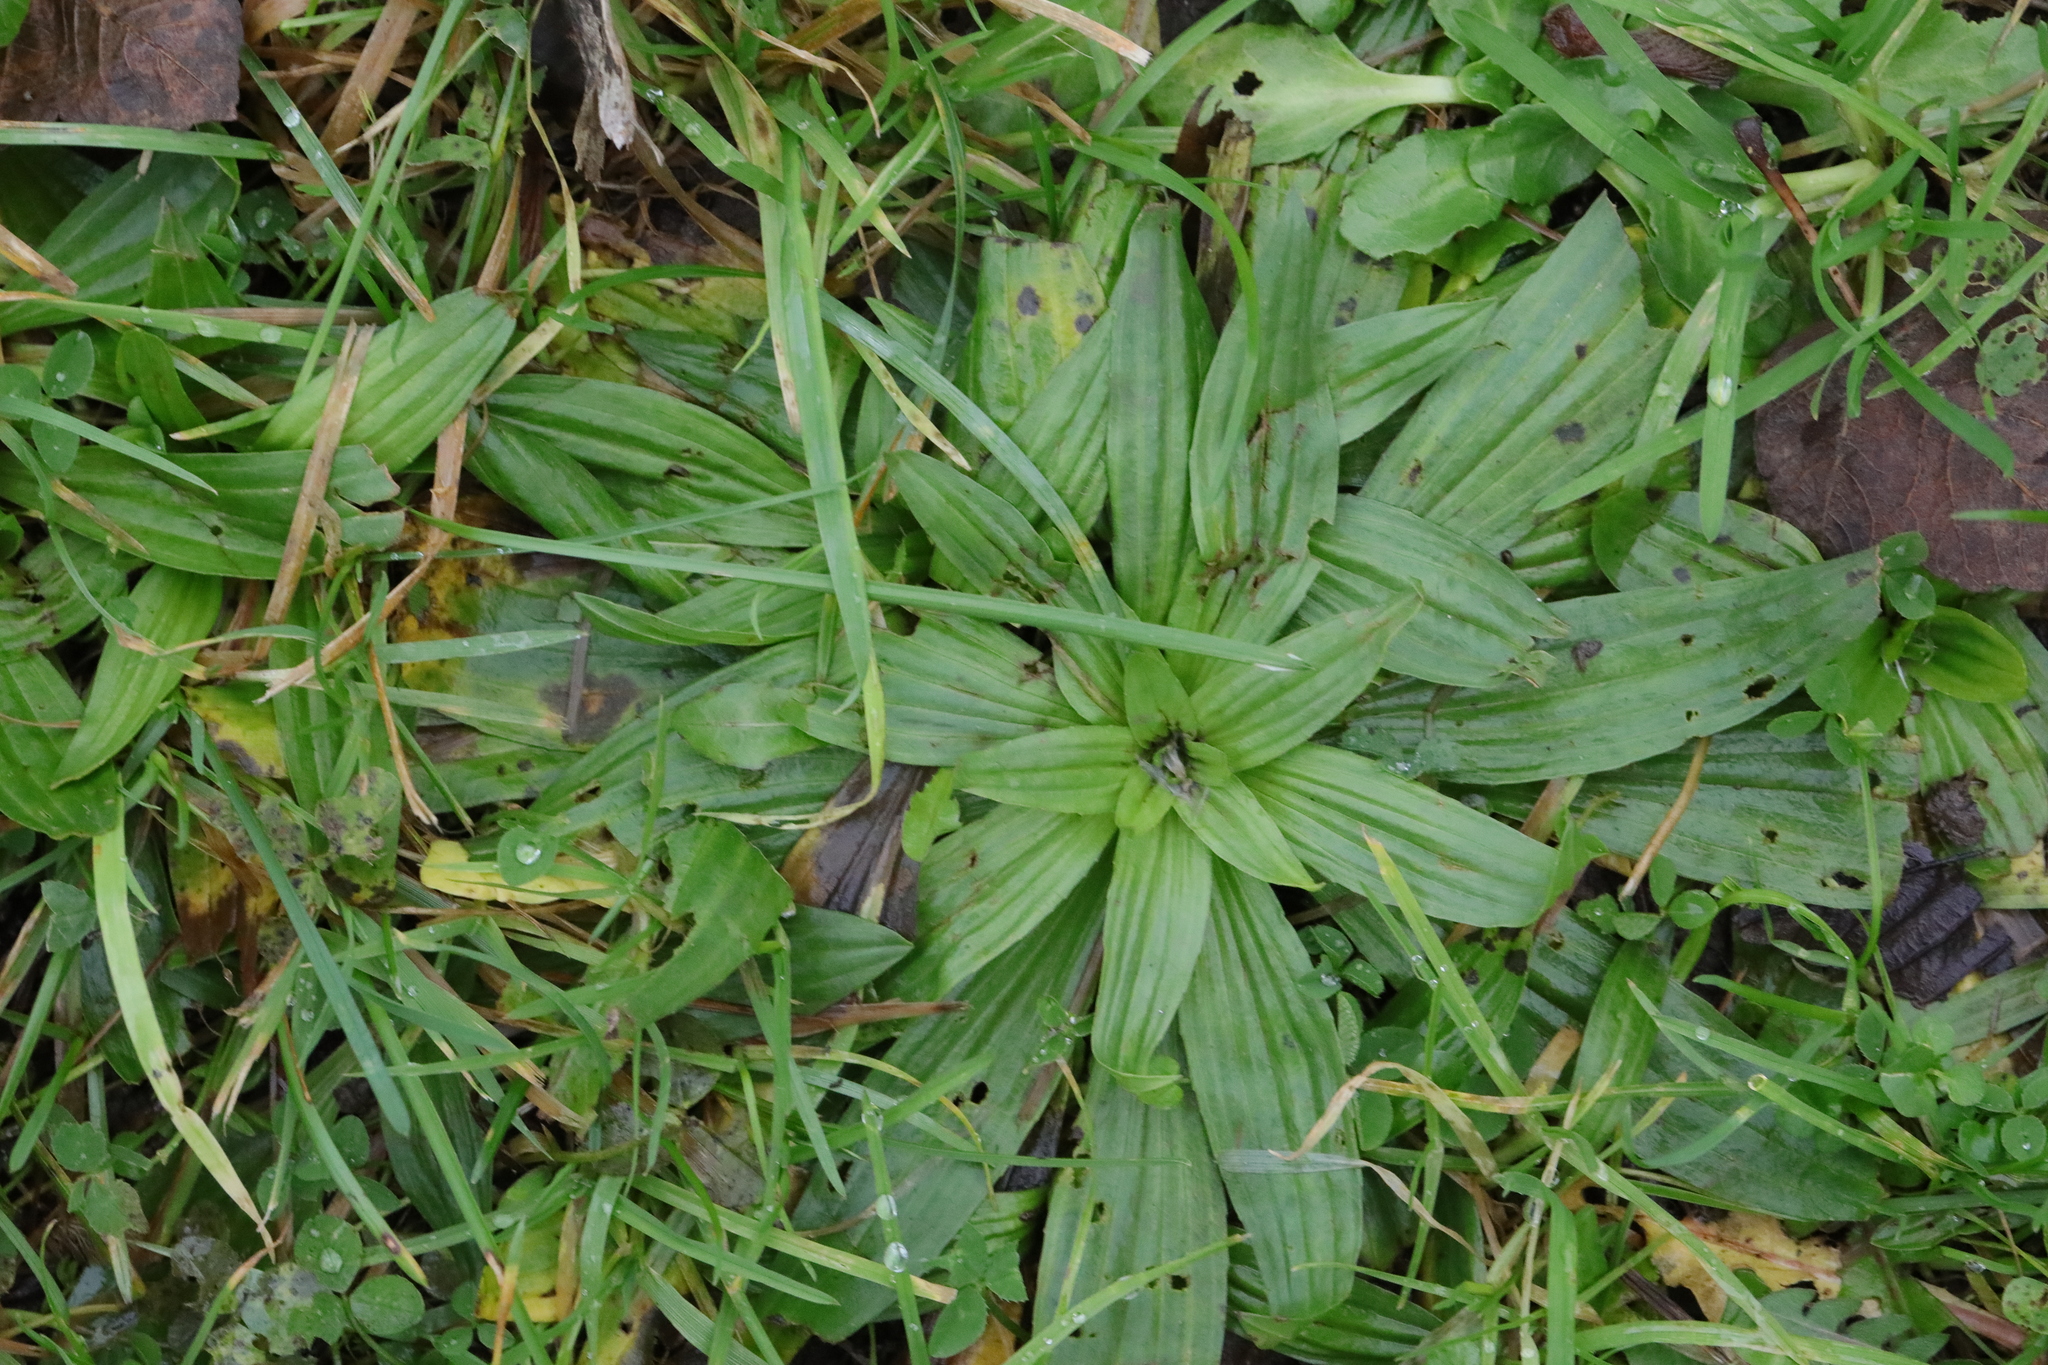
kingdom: Plantae
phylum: Tracheophyta
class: Magnoliopsida
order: Lamiales
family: Plantaginaceae
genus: Plantago
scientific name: Plantago lanceolata
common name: Ribwort plantain
